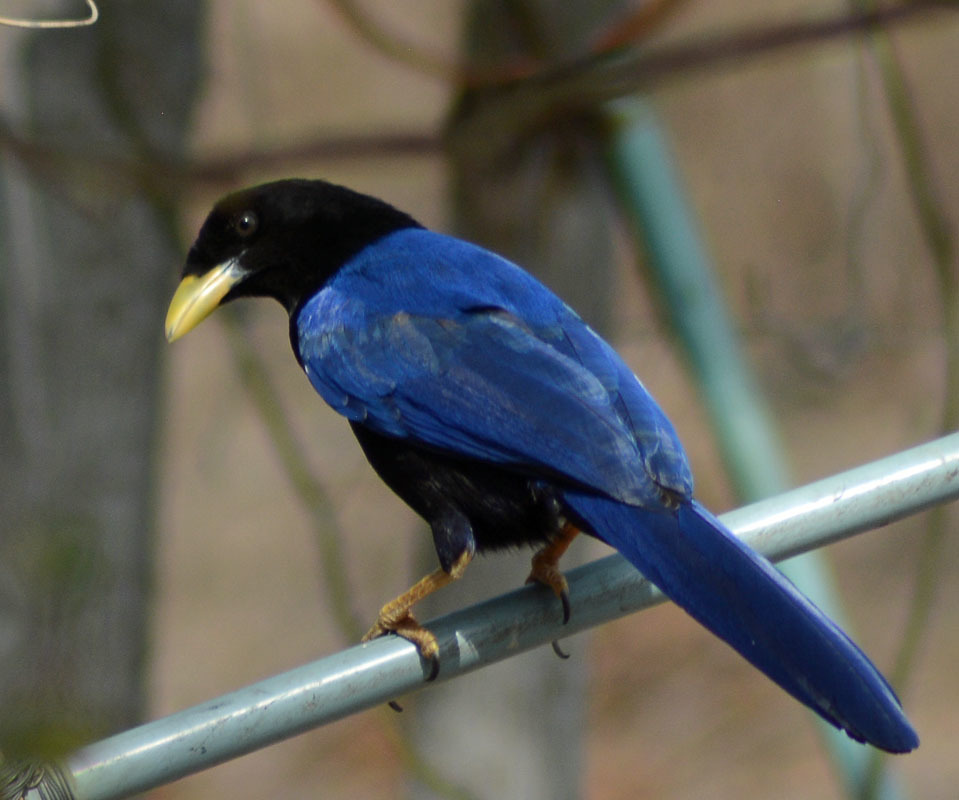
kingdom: Animalia
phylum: Chordata
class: Aves
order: Passeriformes
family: Corvidae
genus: Cyanocorax
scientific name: Cyanocorax beecheii
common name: Purplish-backed jay
